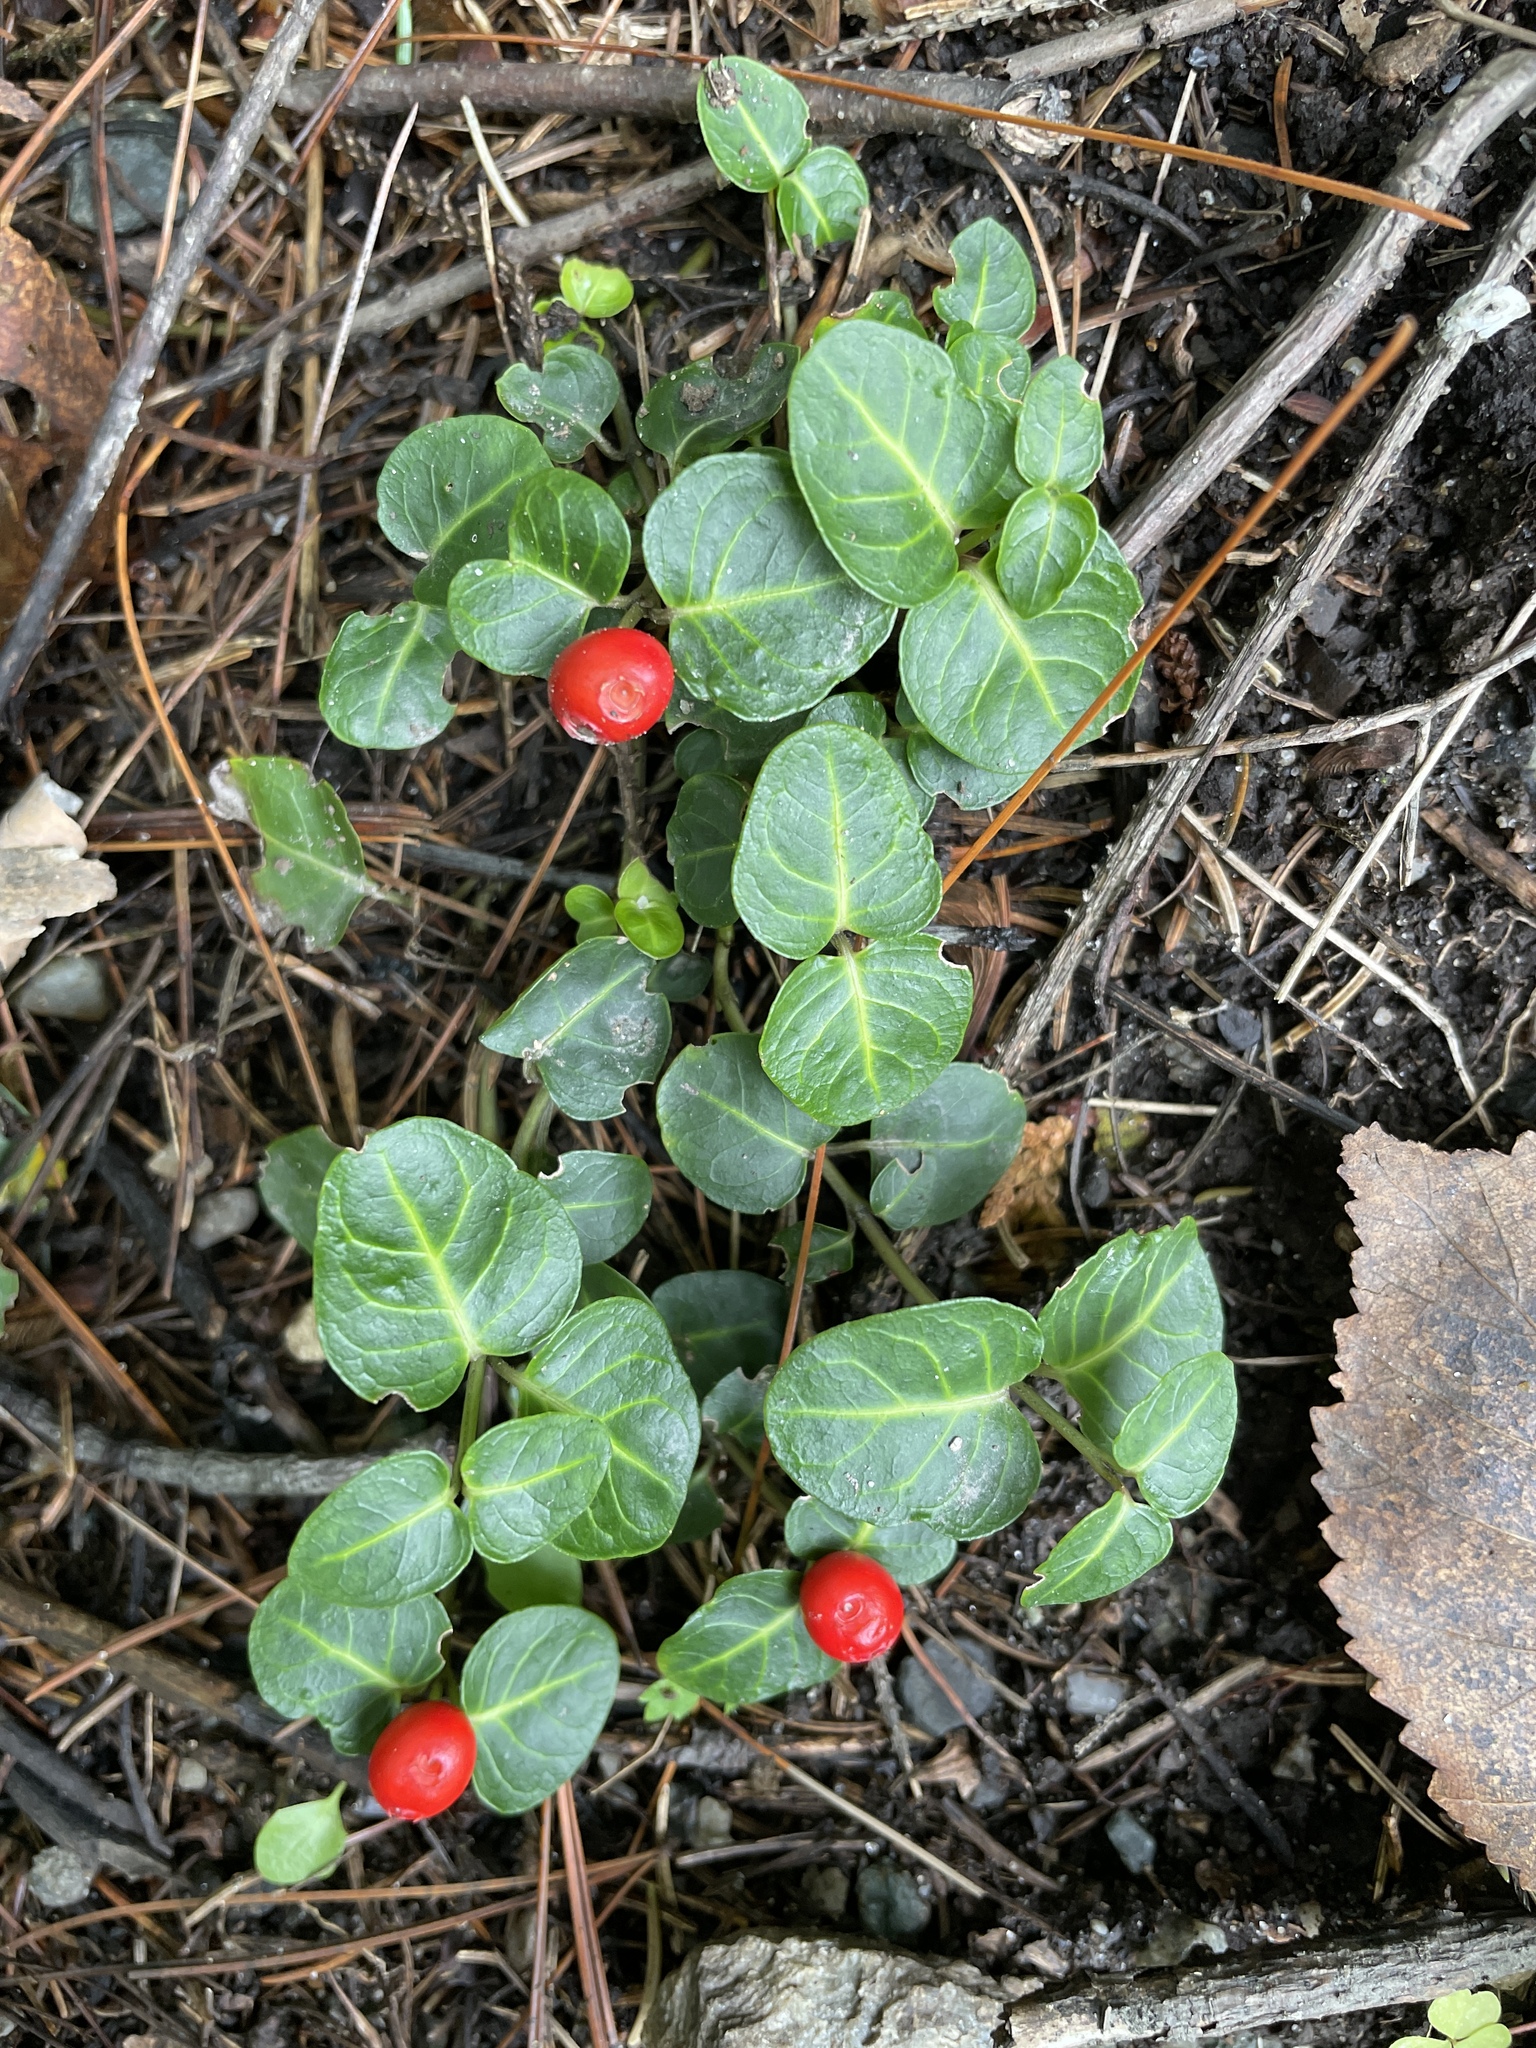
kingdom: Plantae
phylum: Tracheophyta
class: Magnoliopsida
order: Gentianales
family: Rubiaceae
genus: Mitchella
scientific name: Mitchella repens
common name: Partridge-berry
